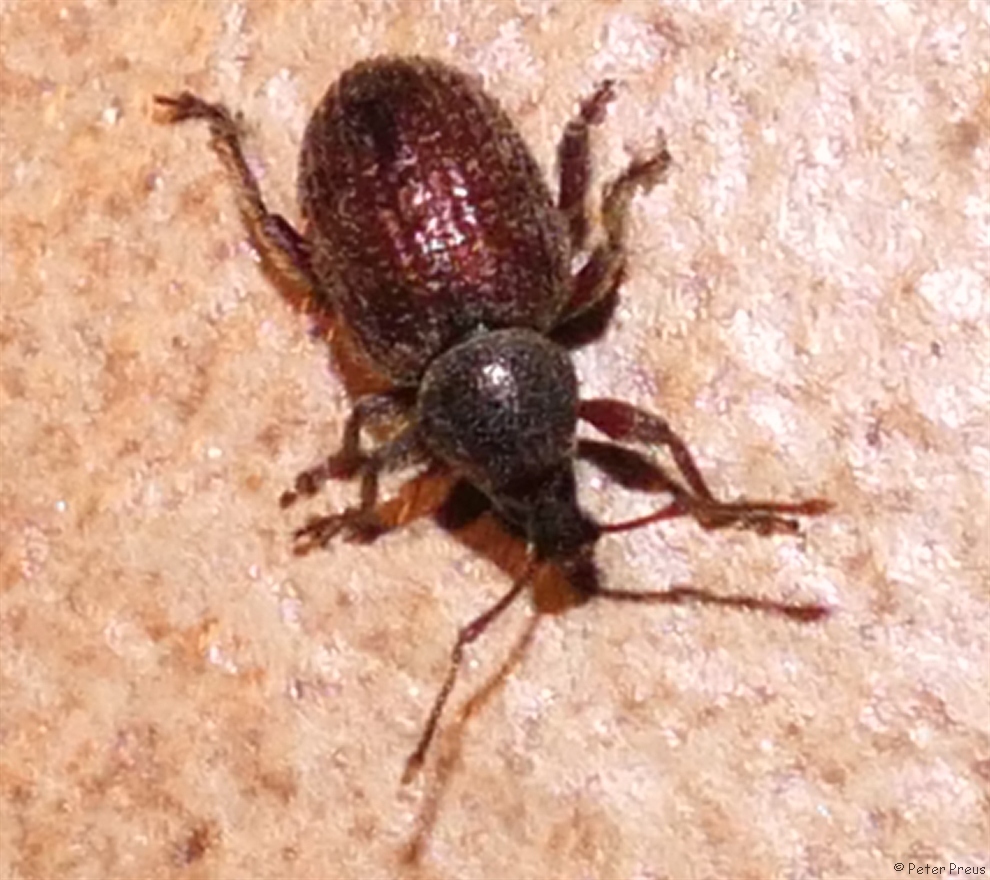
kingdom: Animalia
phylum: Arthropoda
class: Insecta
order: Coleoptera
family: Curculionidae
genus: Otiorhynchus
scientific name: Otiorhynchus indefinitus
